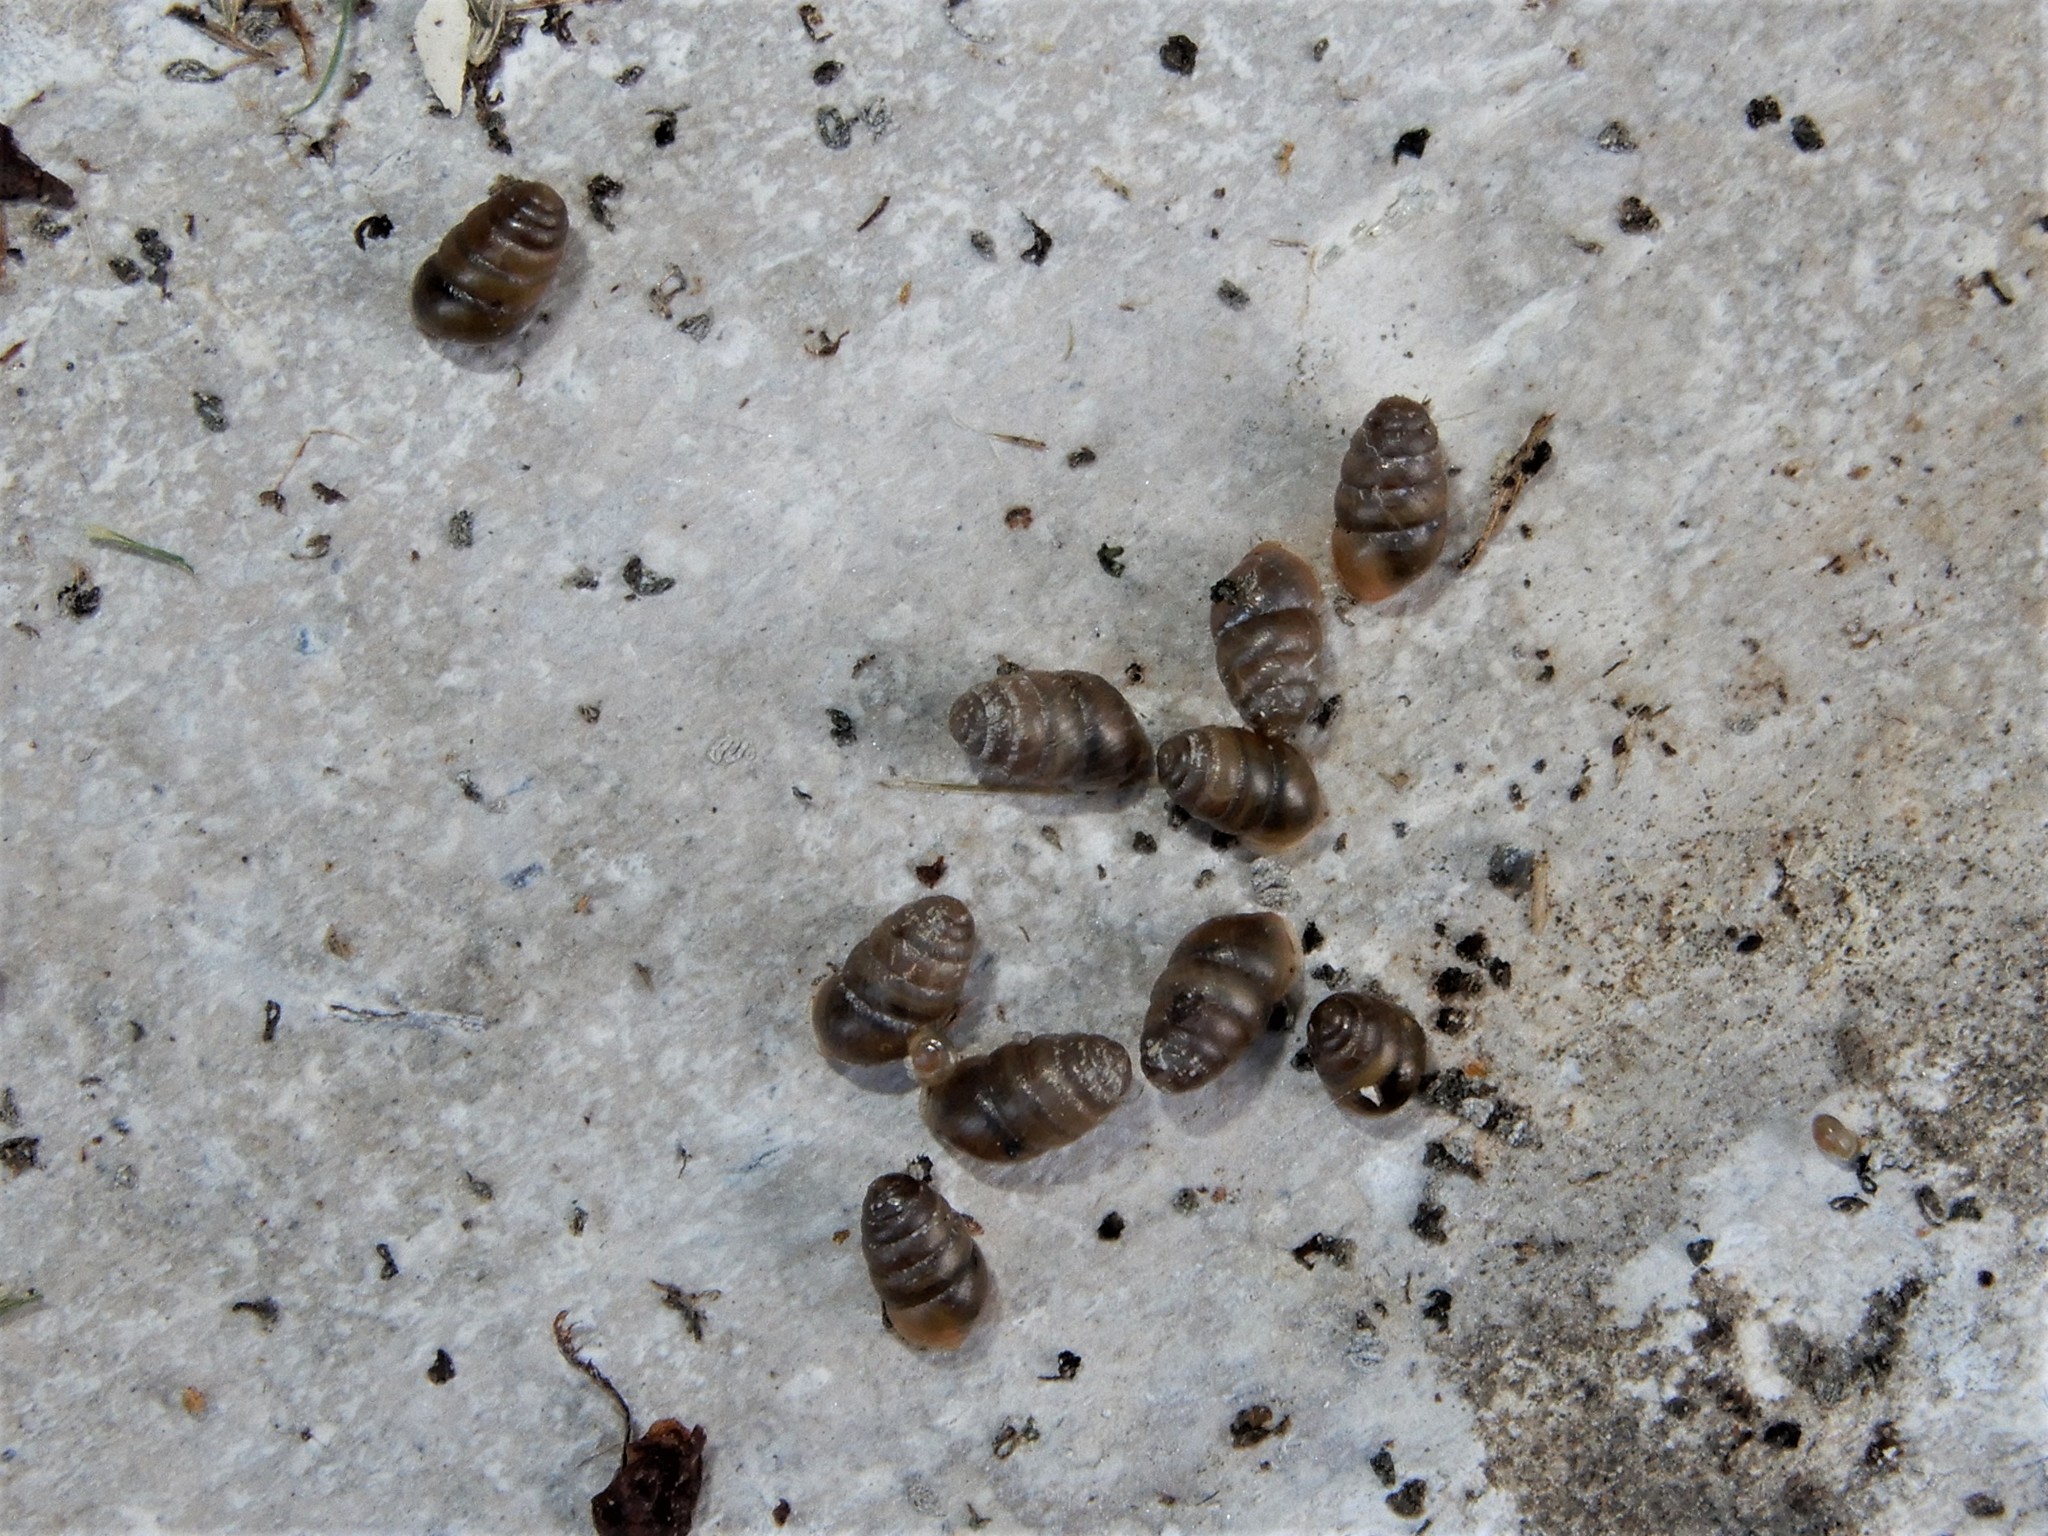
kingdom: Animalia
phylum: Mollusca
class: Gastropoda
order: Stylommatophora
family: Lauriidae
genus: Lauria
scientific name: Lauria cylindracea
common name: Common chrysalis snail
